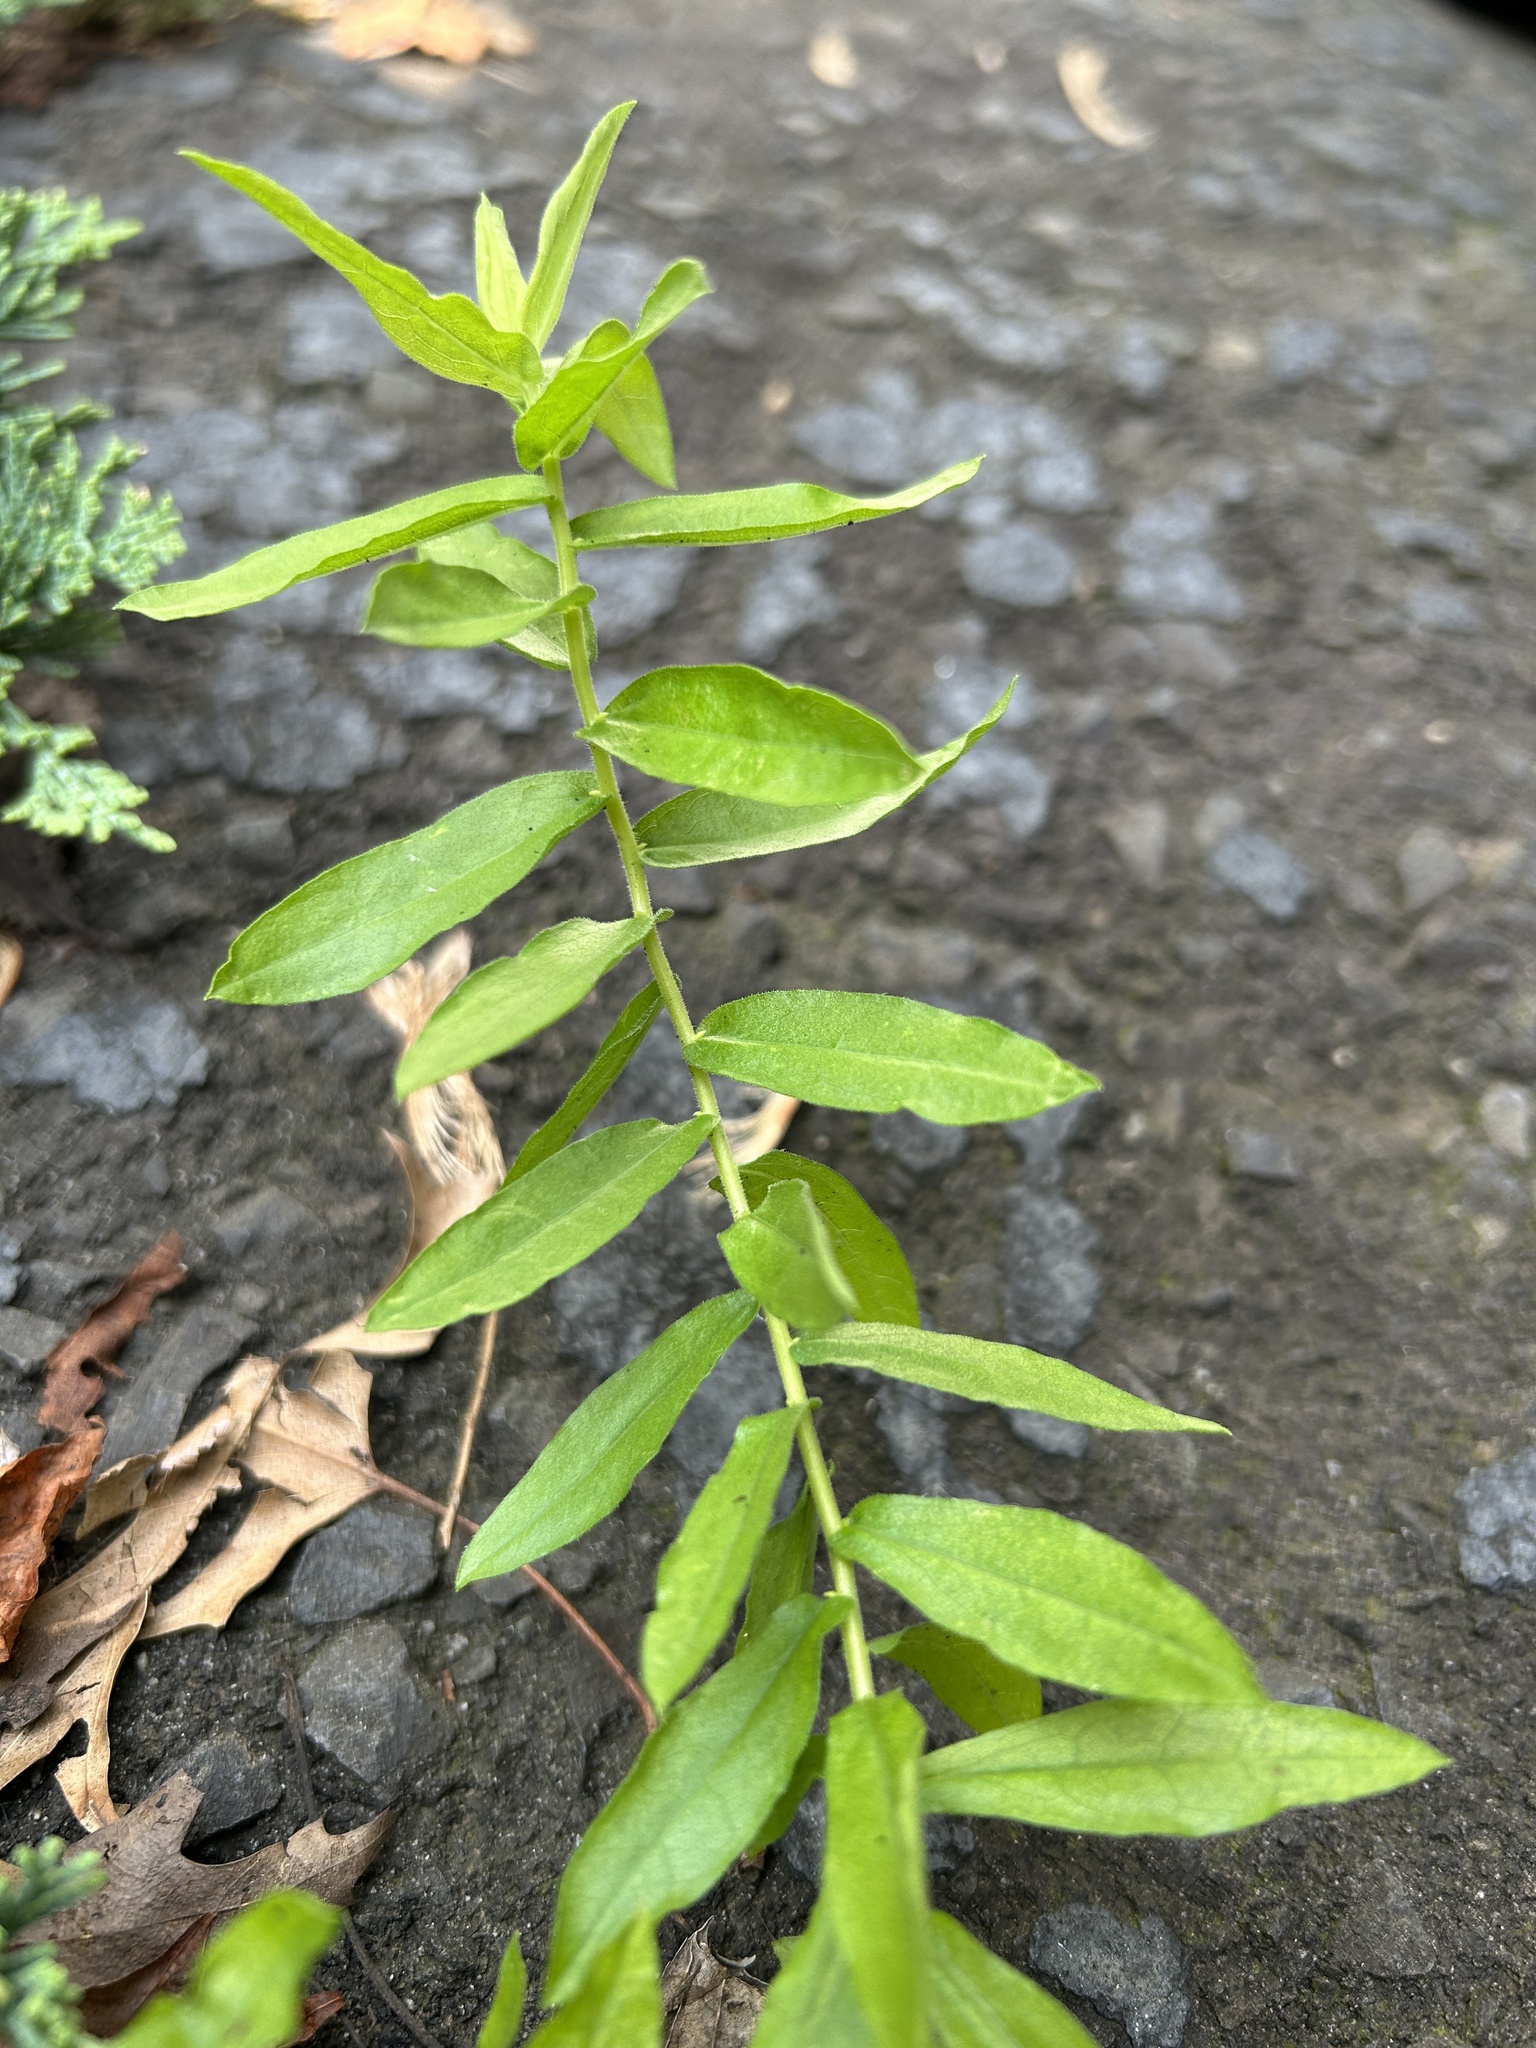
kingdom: Plantae
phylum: Tracheophyta
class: Magnoliopsida
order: Asterales
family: Asteraceae
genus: Symphyotrichum
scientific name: Symphyotrichum oblongifolium
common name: Aromatic aster
